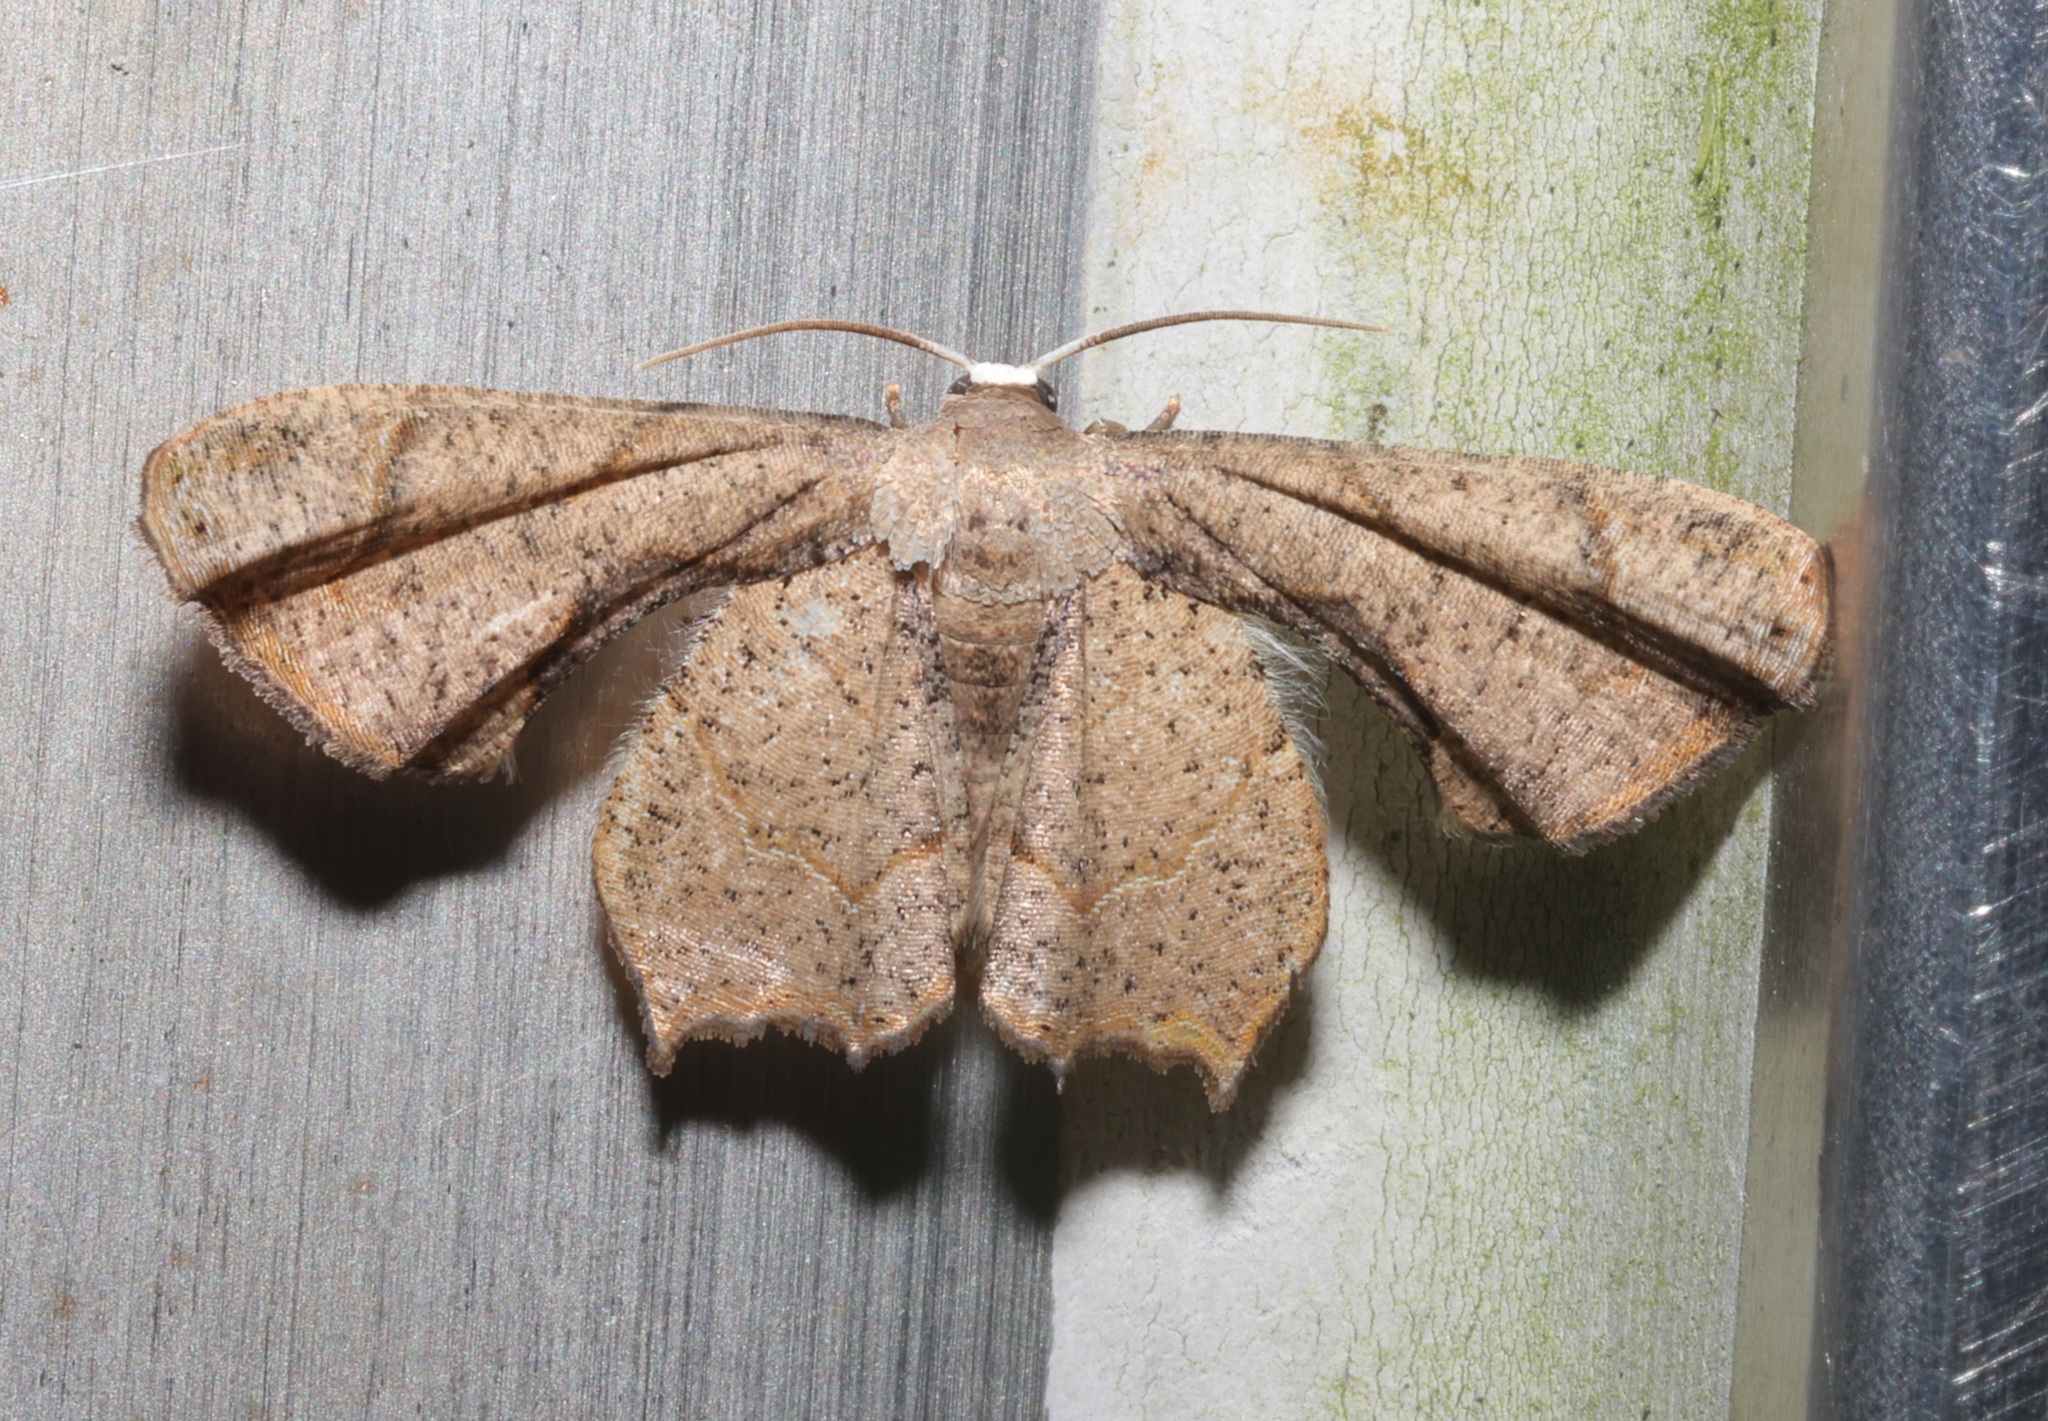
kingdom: Animalia
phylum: Arthropoda
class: Insecta
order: Lepidoptera
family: Uraniidae
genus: Phazaca
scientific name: Phazaca
